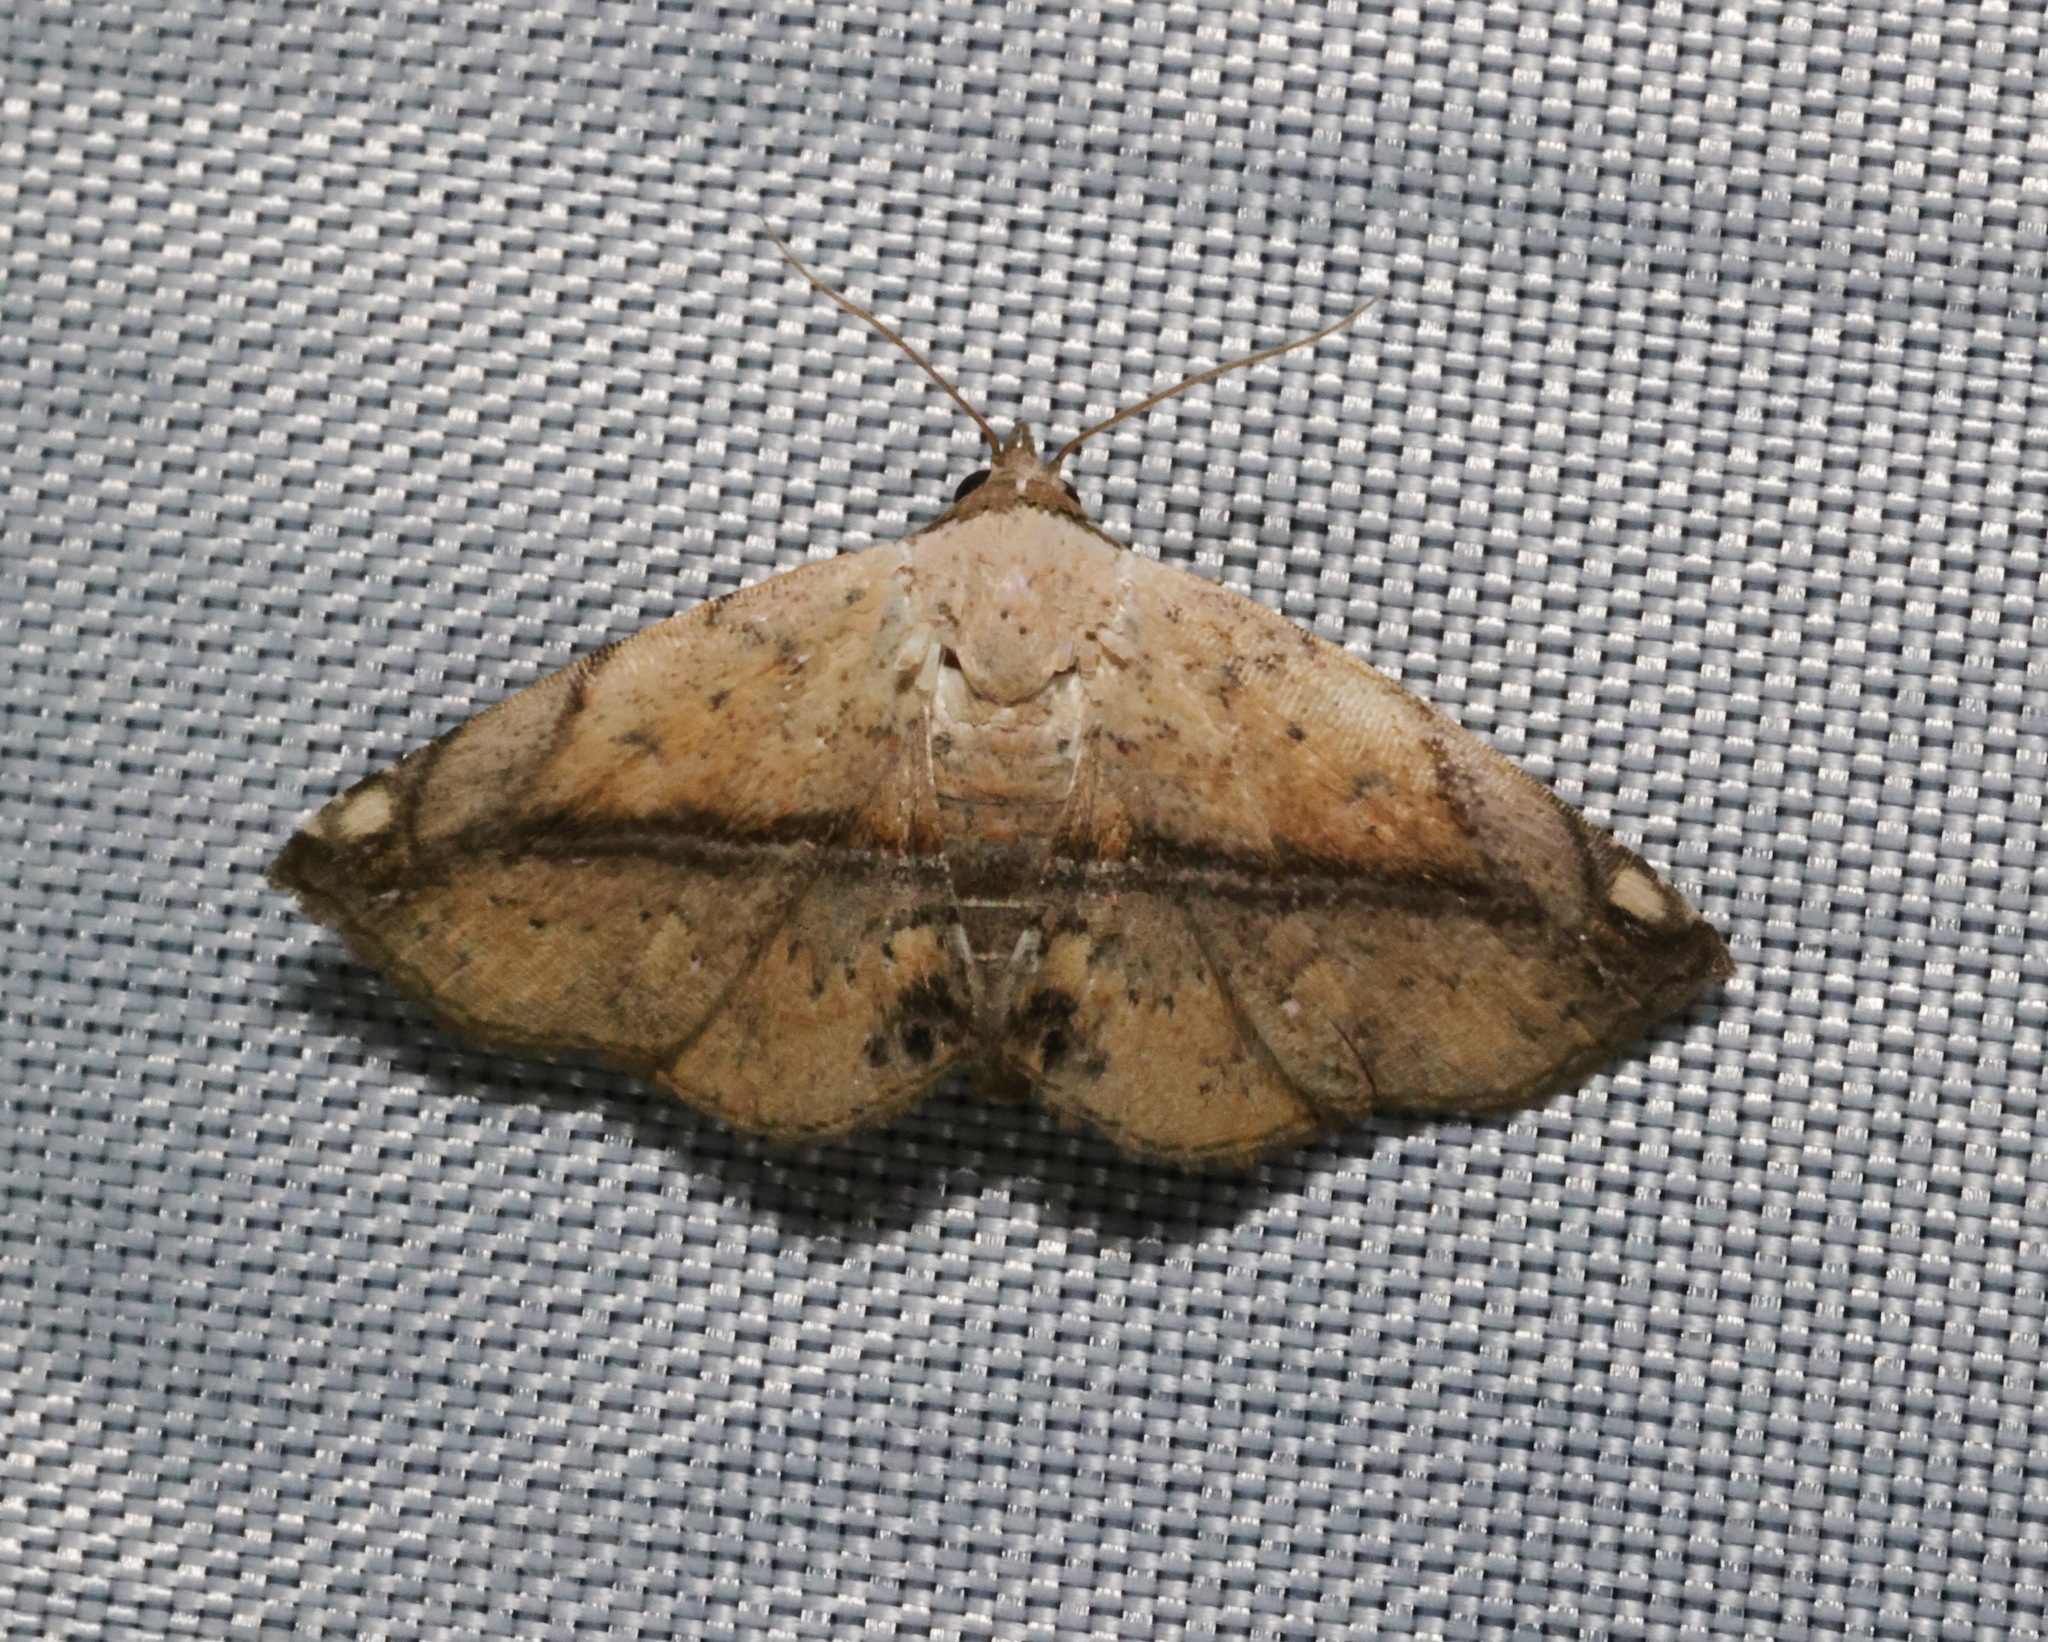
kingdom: Animalia
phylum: Arthropoda
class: Insecta
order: Lepidoptera
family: Noctuidae
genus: Eublemma
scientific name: Eublemma abrupta
